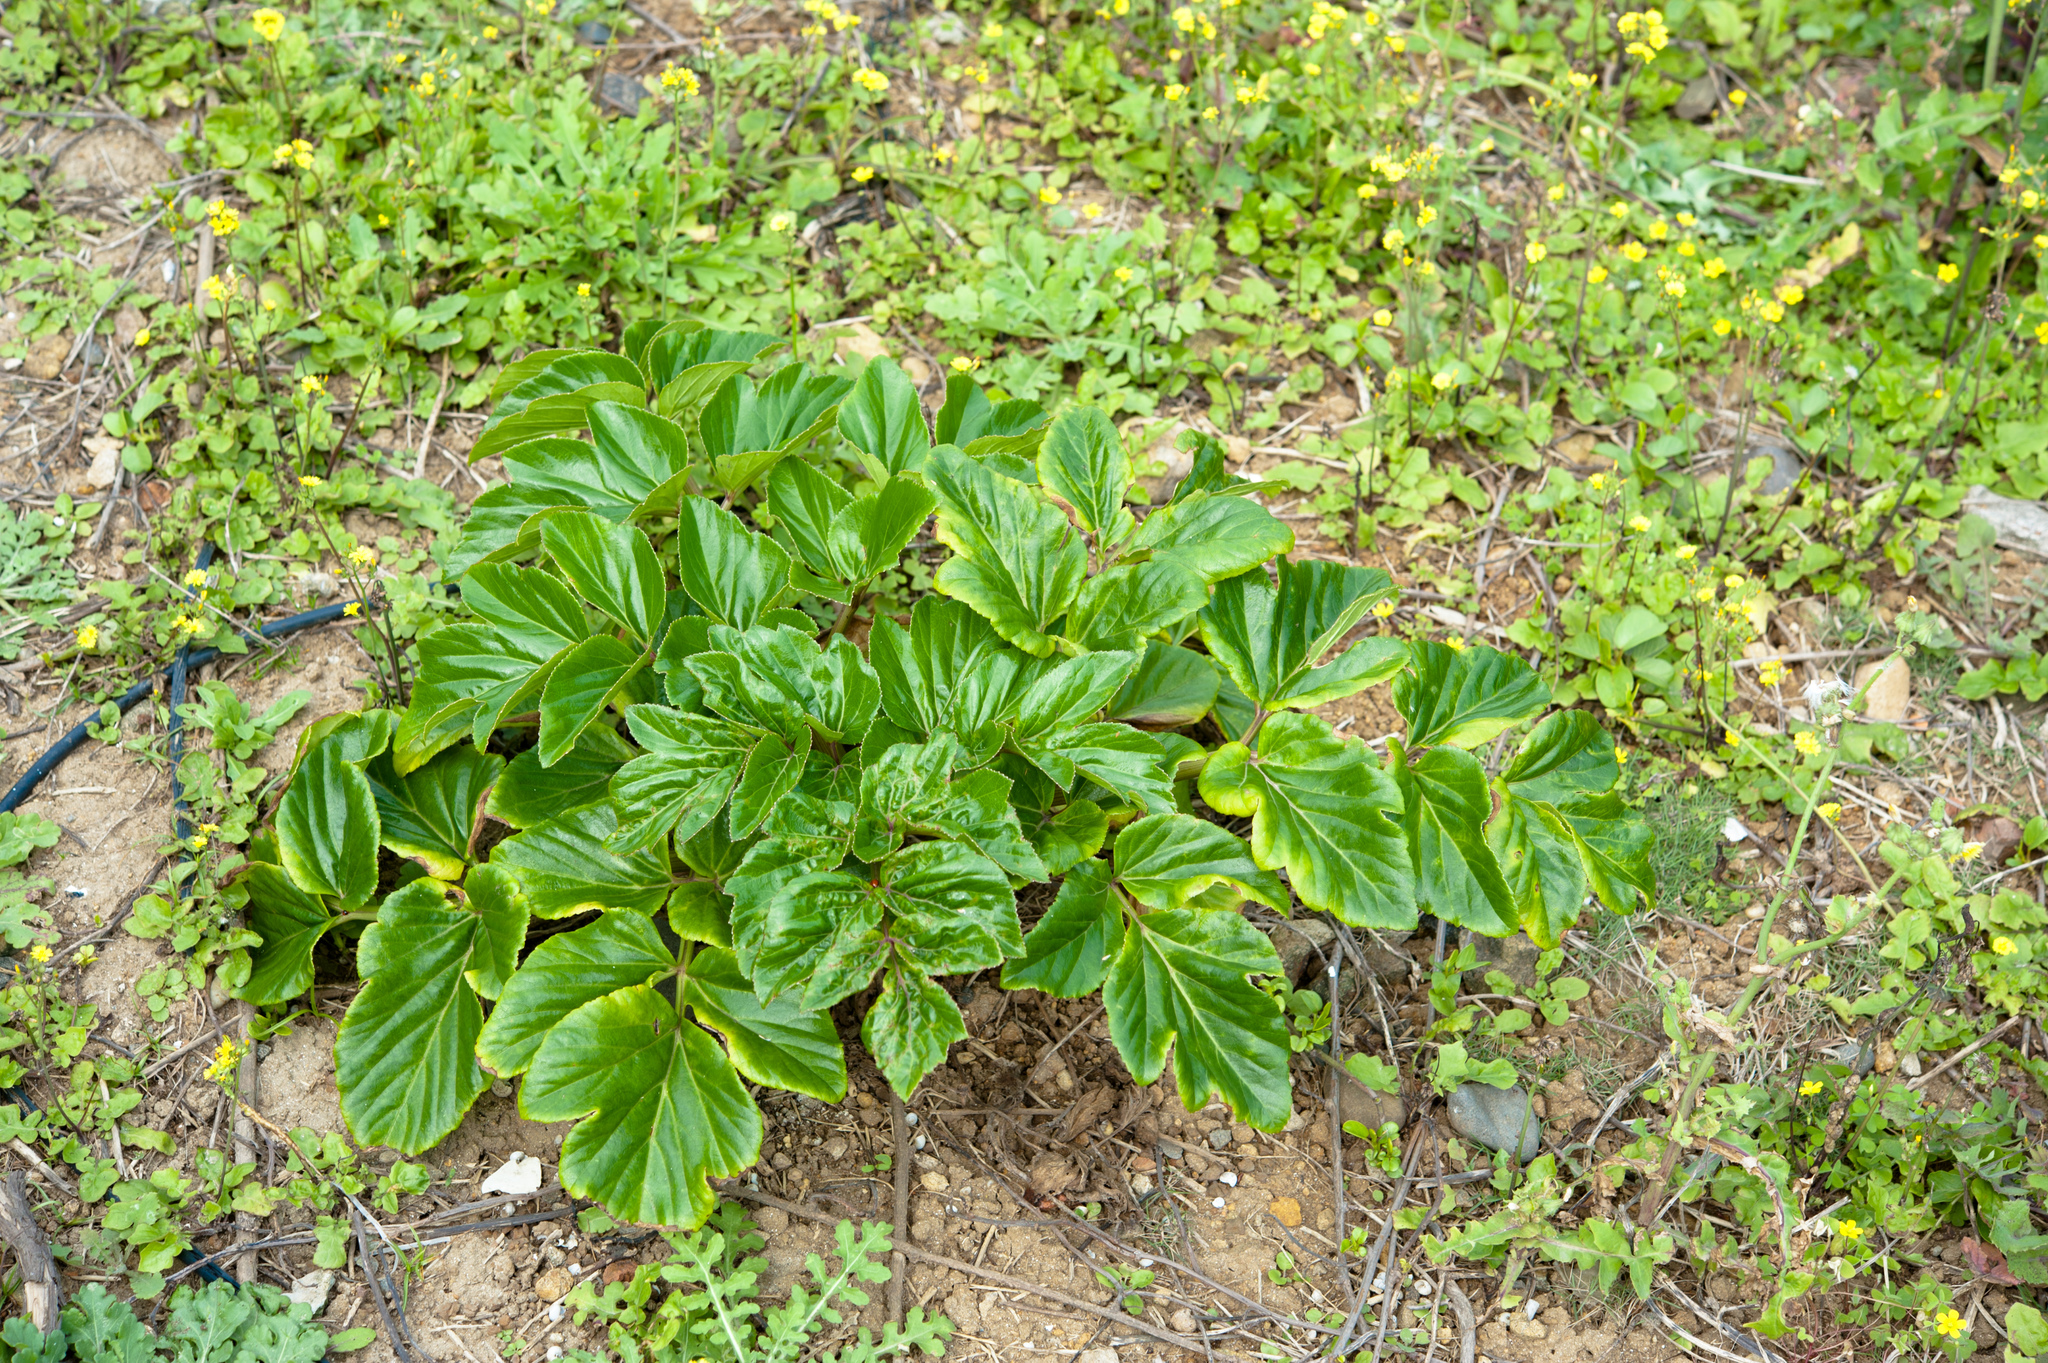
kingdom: Plantae
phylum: Tracheophyta
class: Magnoliopsida
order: Apiales
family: Apiaceae
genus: Angelica
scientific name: Angelica hirsutiflora
